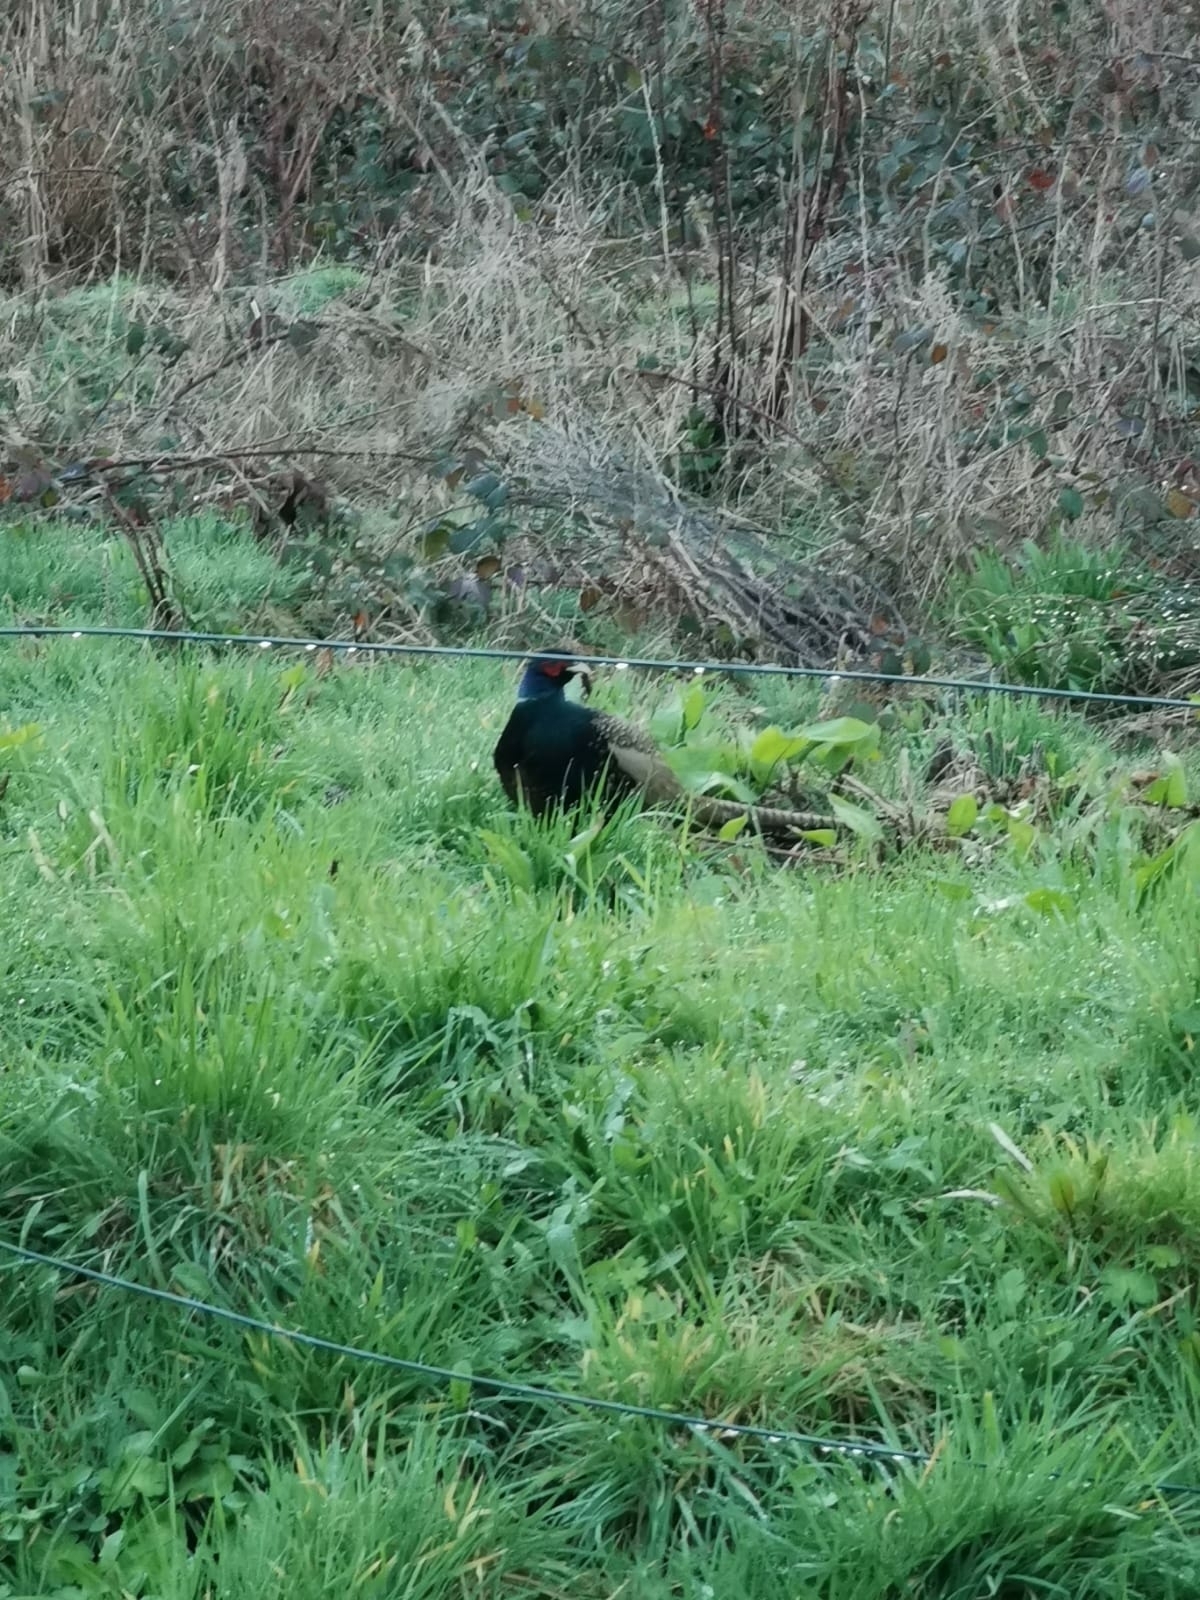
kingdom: Animalia
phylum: Chordata
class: Aves
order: Galliformes
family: Phasianidae
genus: Phasianus
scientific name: Phasianus colchicus
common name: Common pheasant
